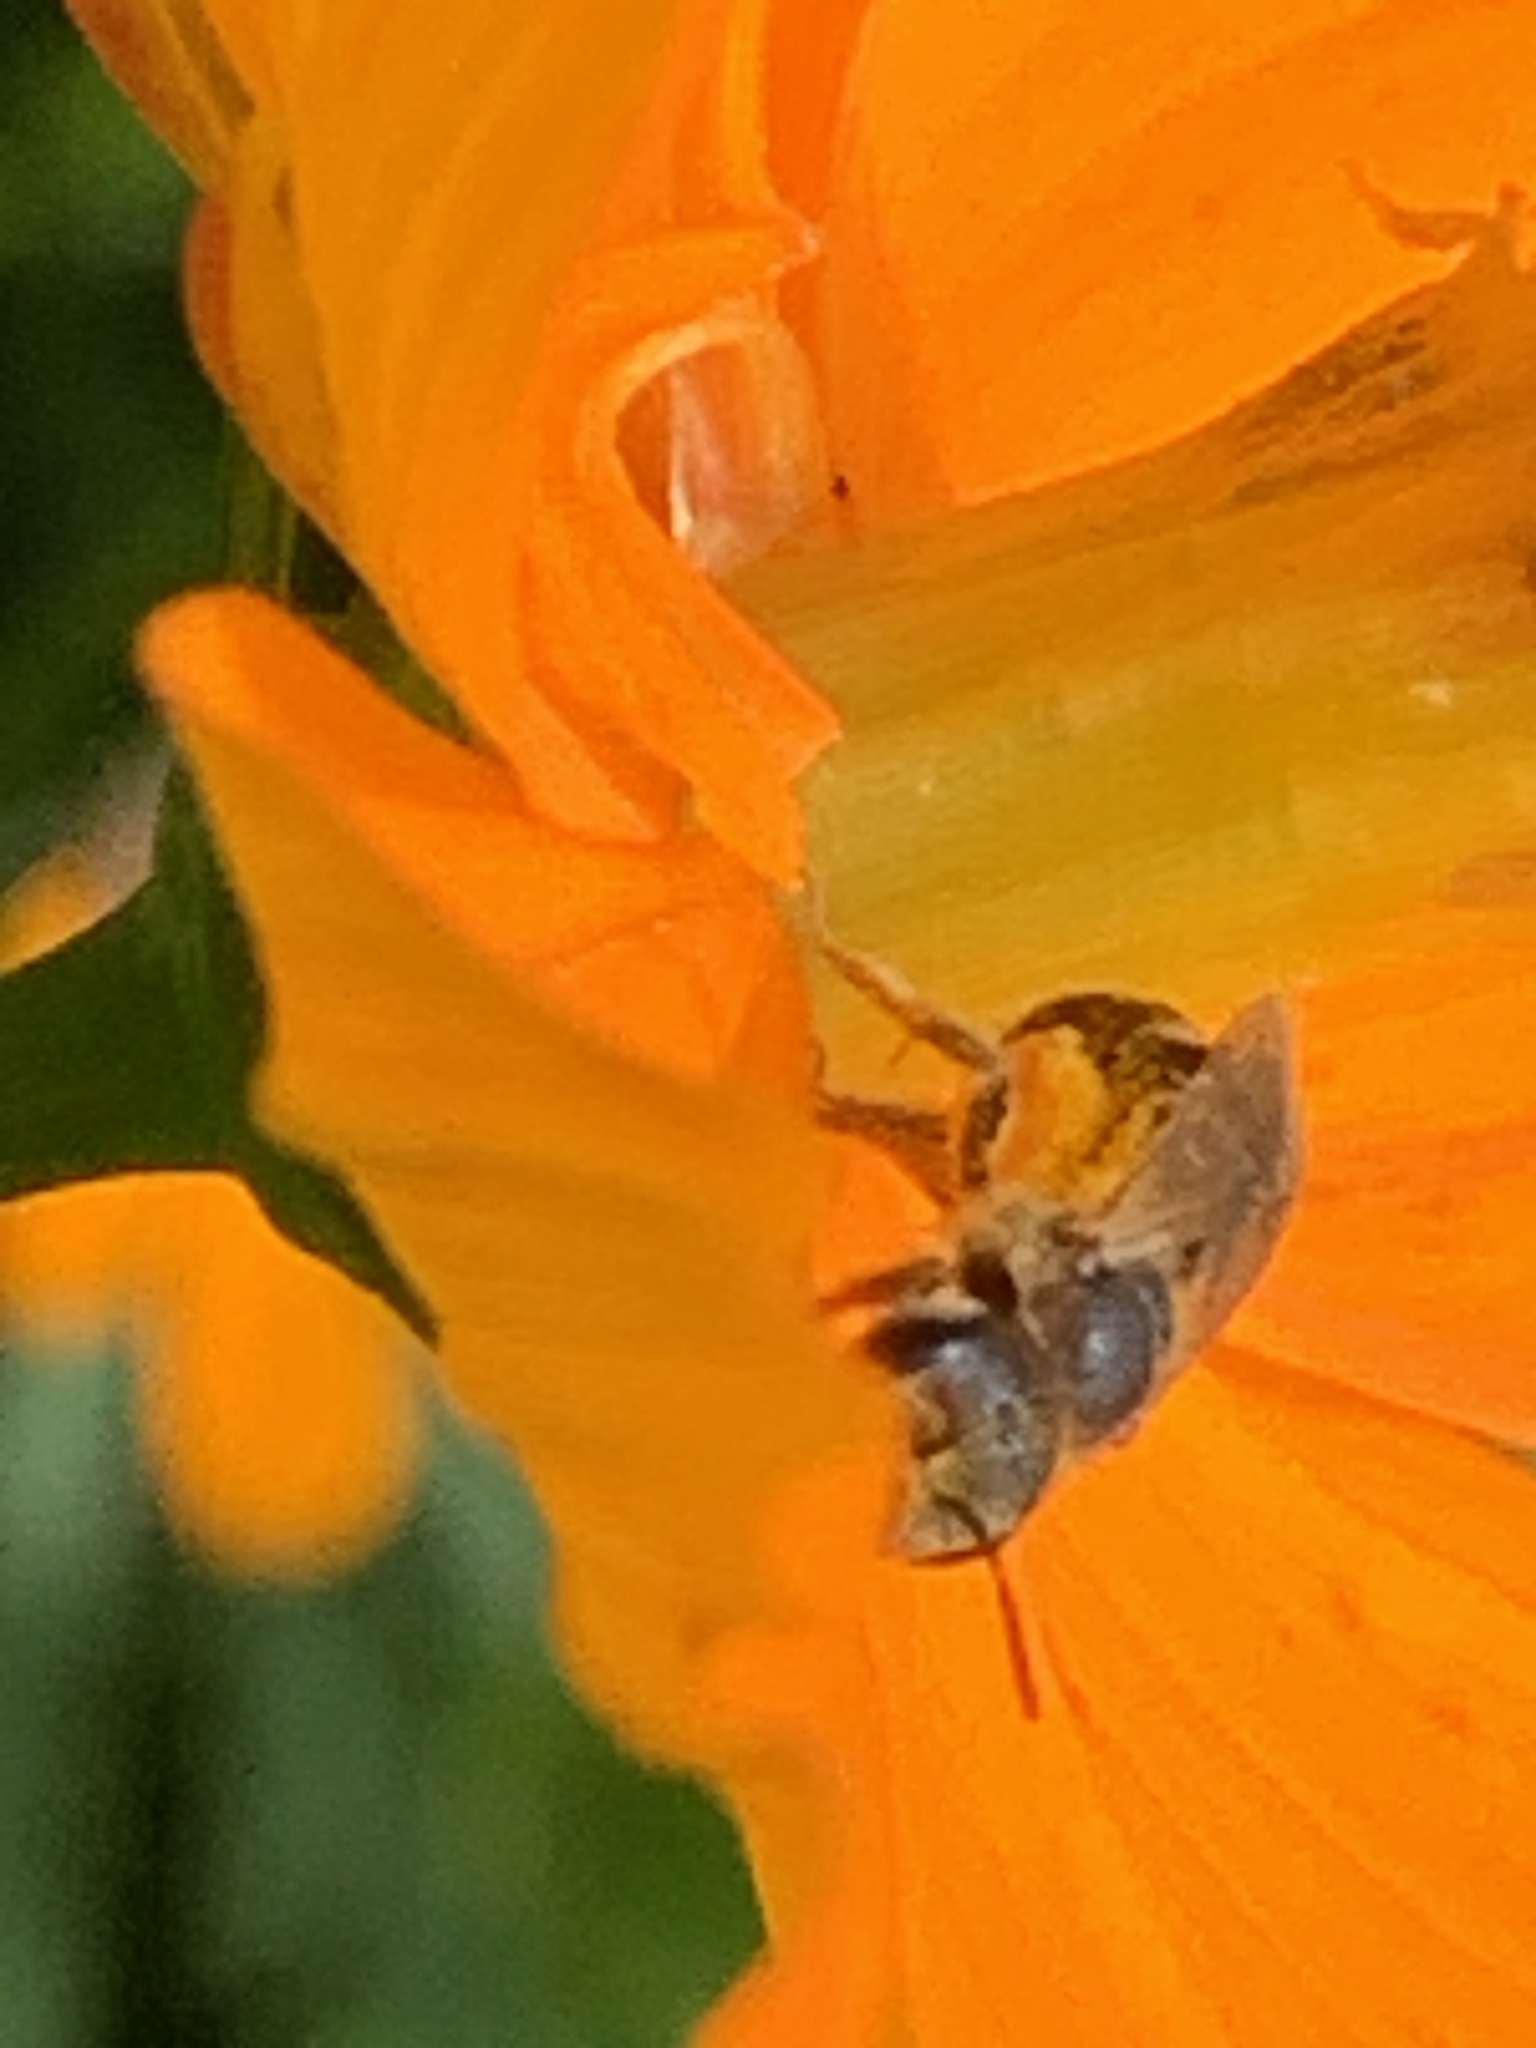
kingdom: Animalia
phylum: Arthropoda
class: Insecta
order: Hymenoptera
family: Halictidae
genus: Halictus
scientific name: Halictus ligatus
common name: Ligated furrow bee
